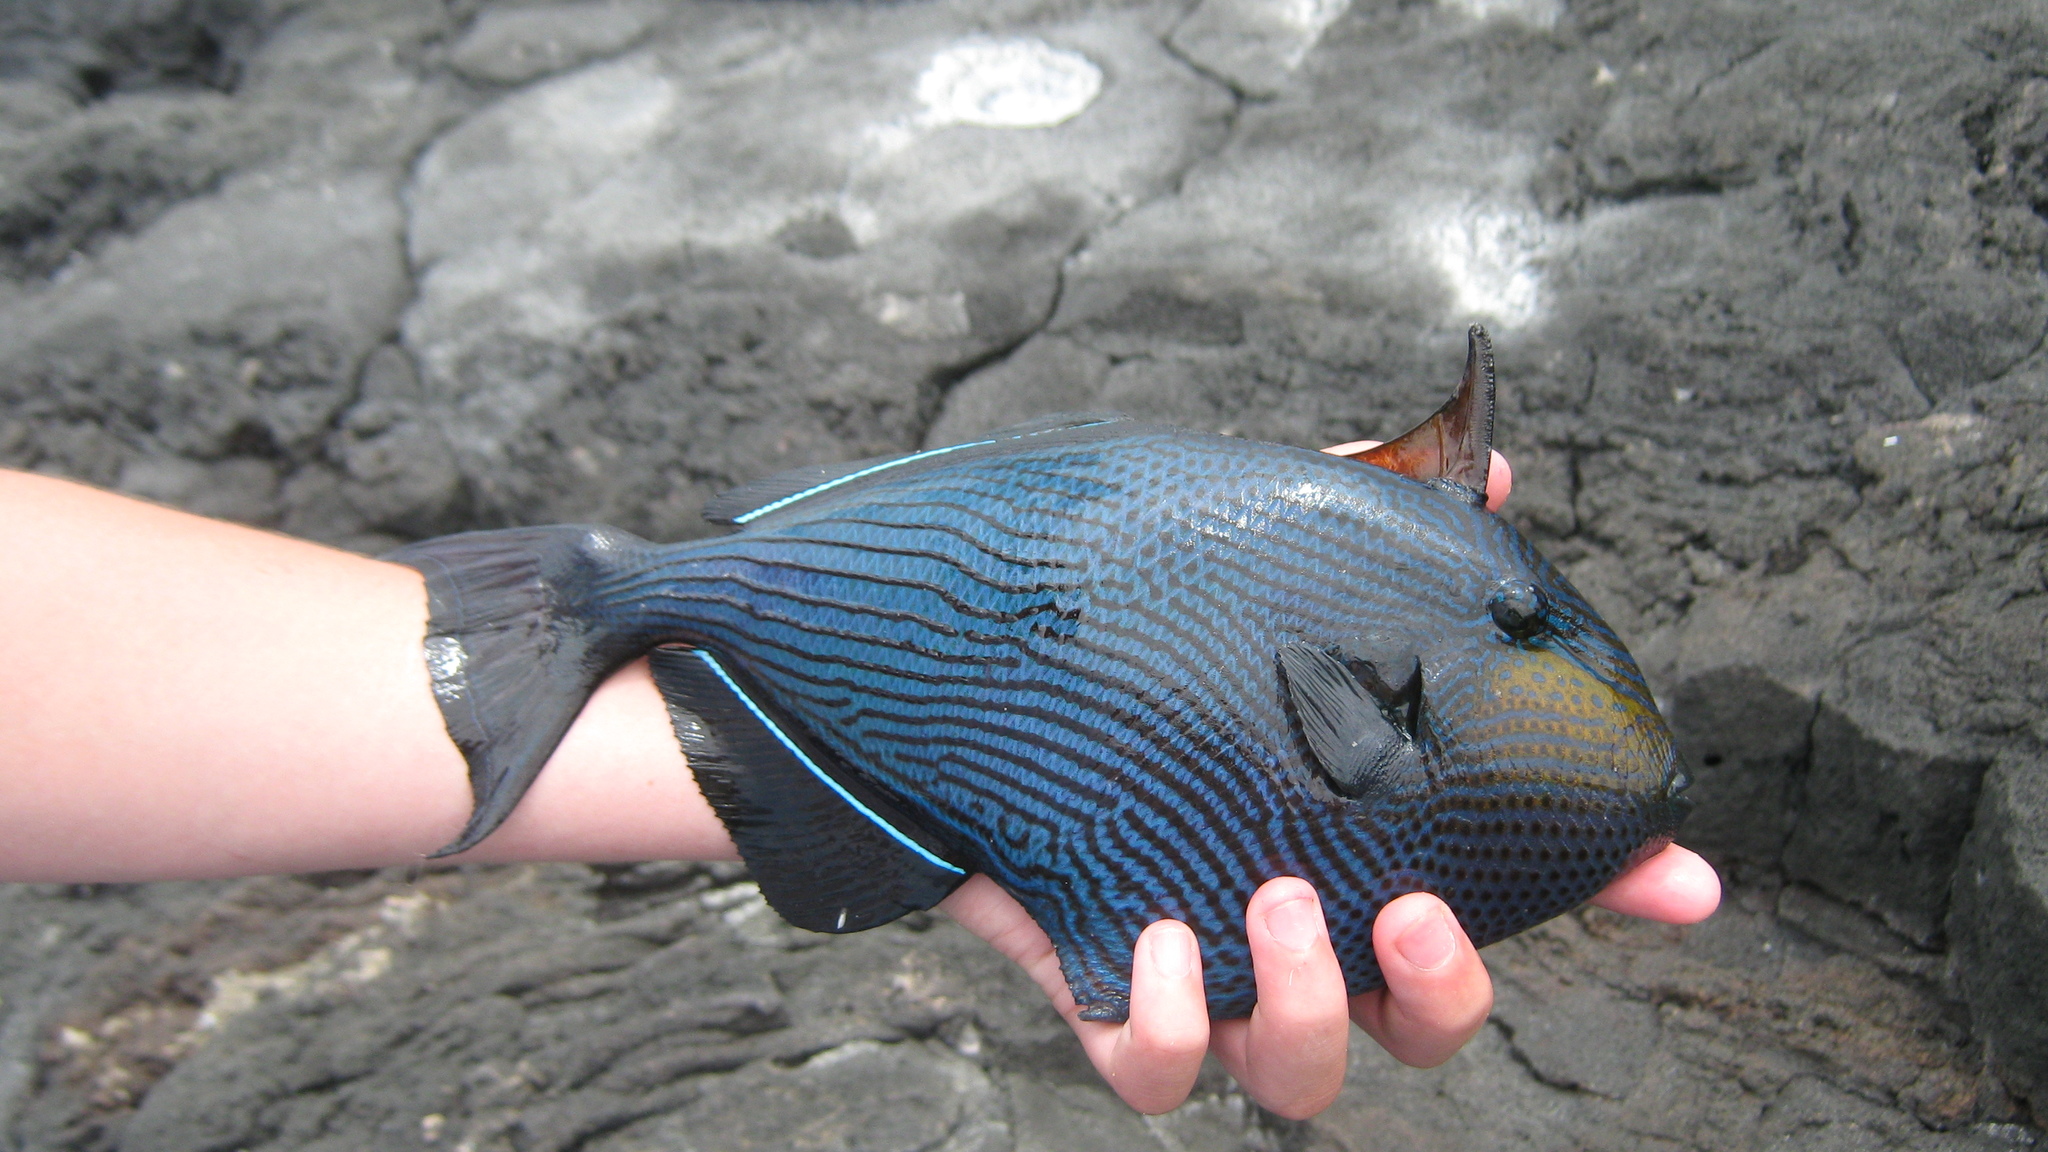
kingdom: Animalia
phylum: Chordata
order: Tetraodontiformes
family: Balistidae
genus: Melichthys
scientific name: Melichthys niger
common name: Black durgon
